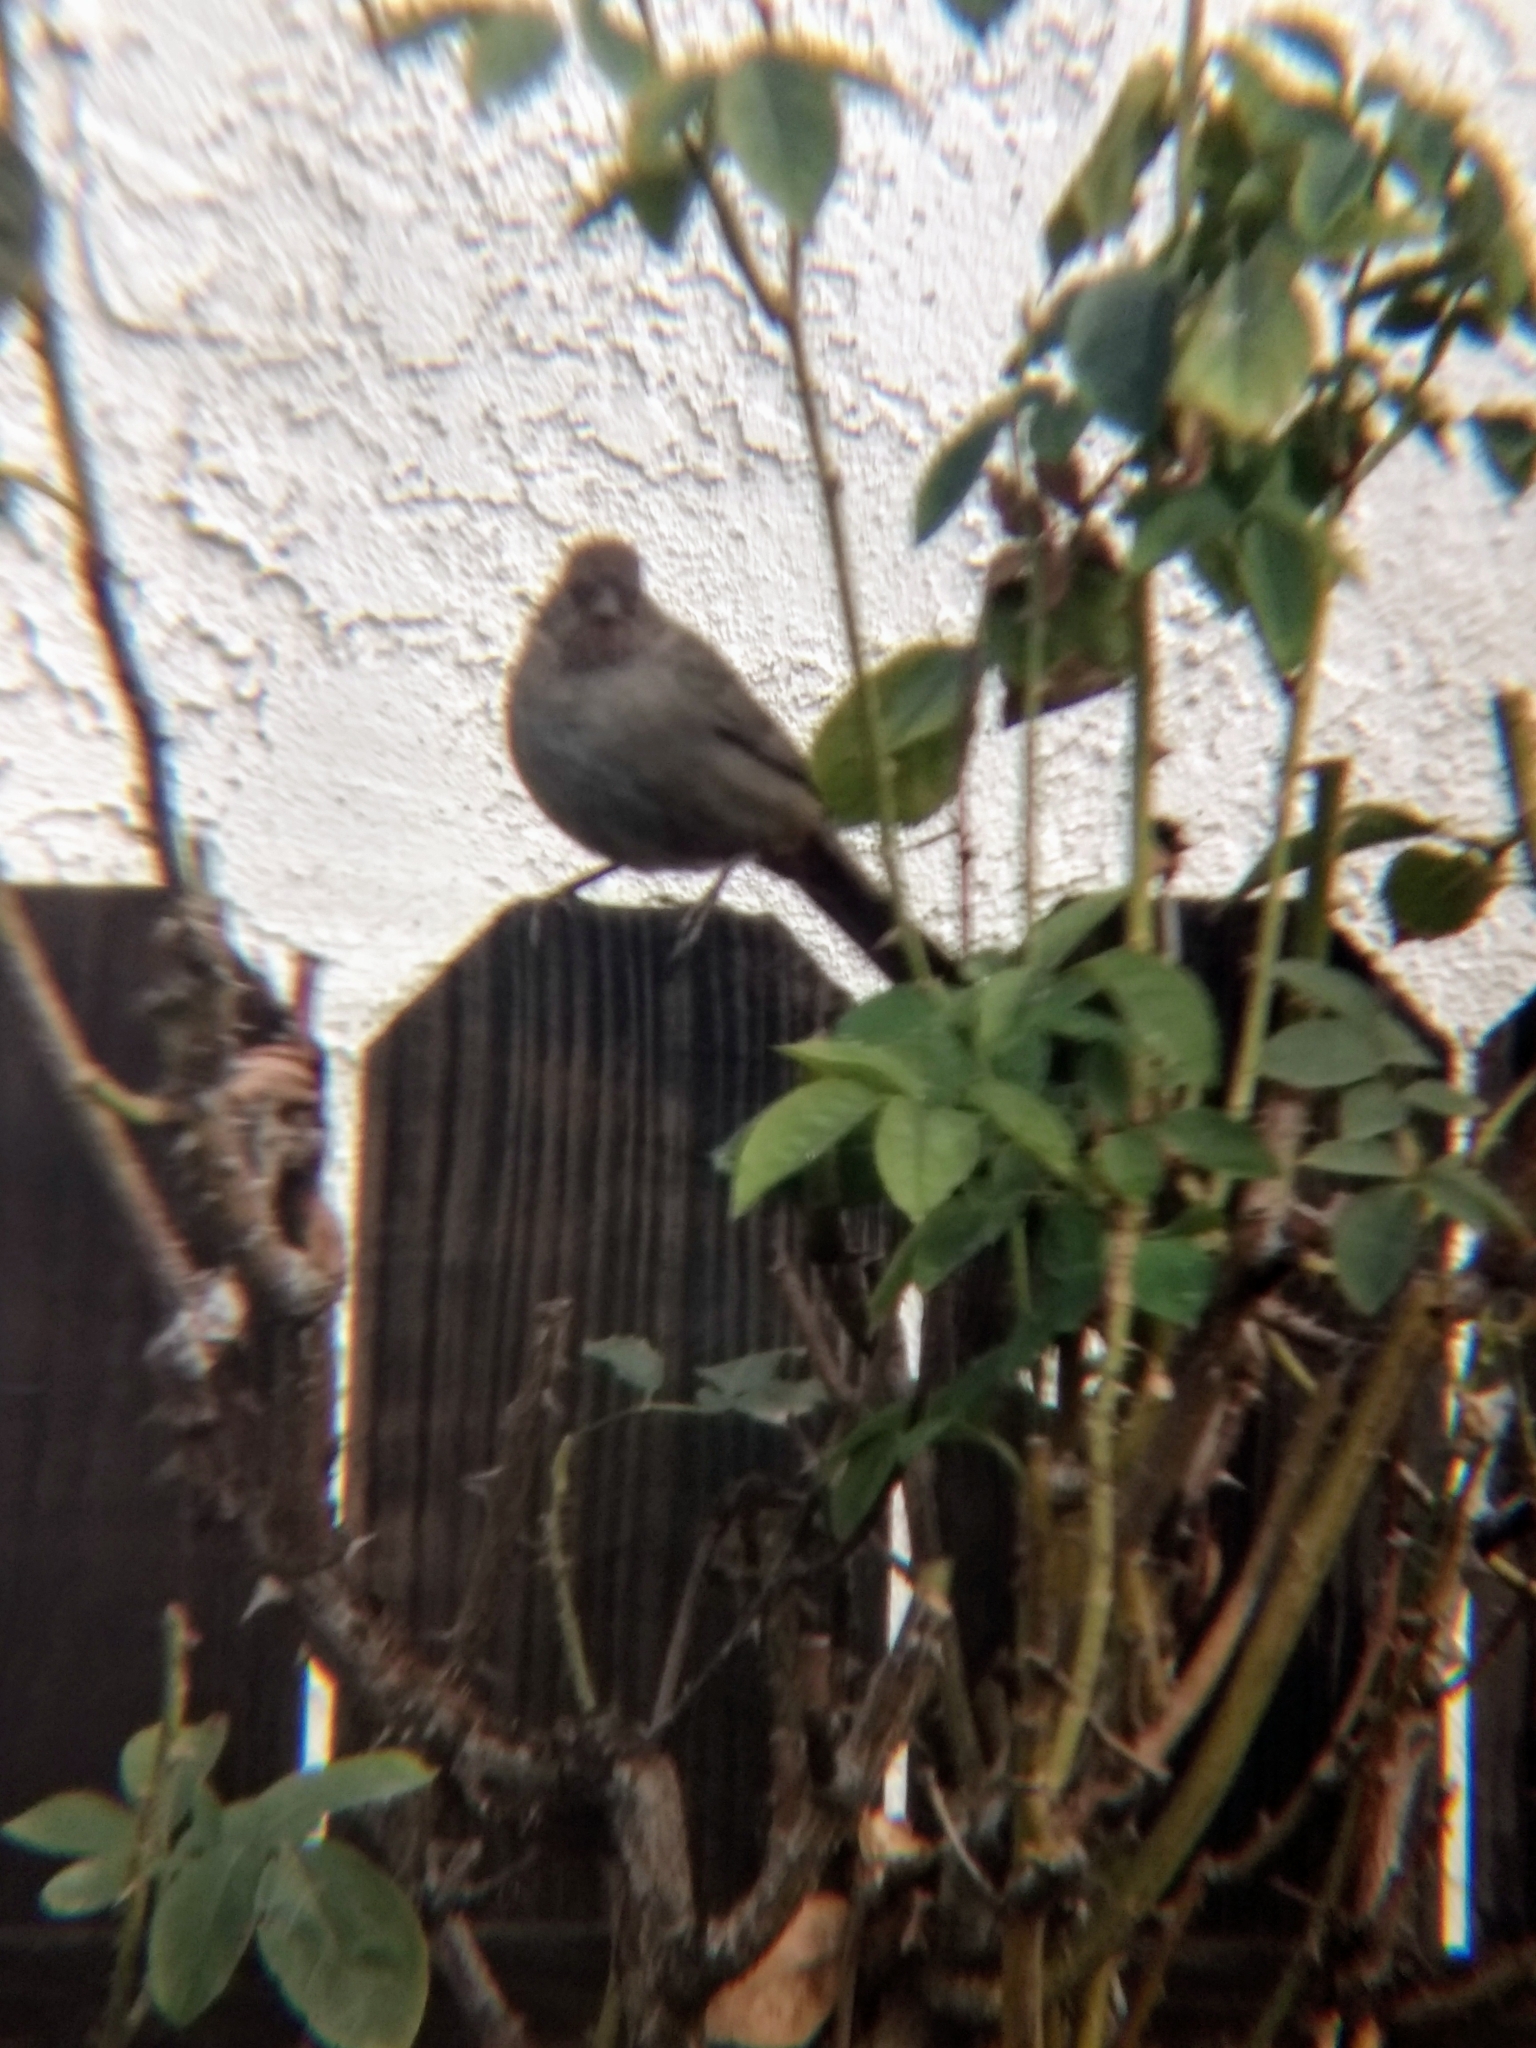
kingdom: Animalia
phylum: Chordata
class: Aves
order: Passeriformes
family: Passerellidae
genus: Melozone
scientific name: Melozone crissalis
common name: California towhee
